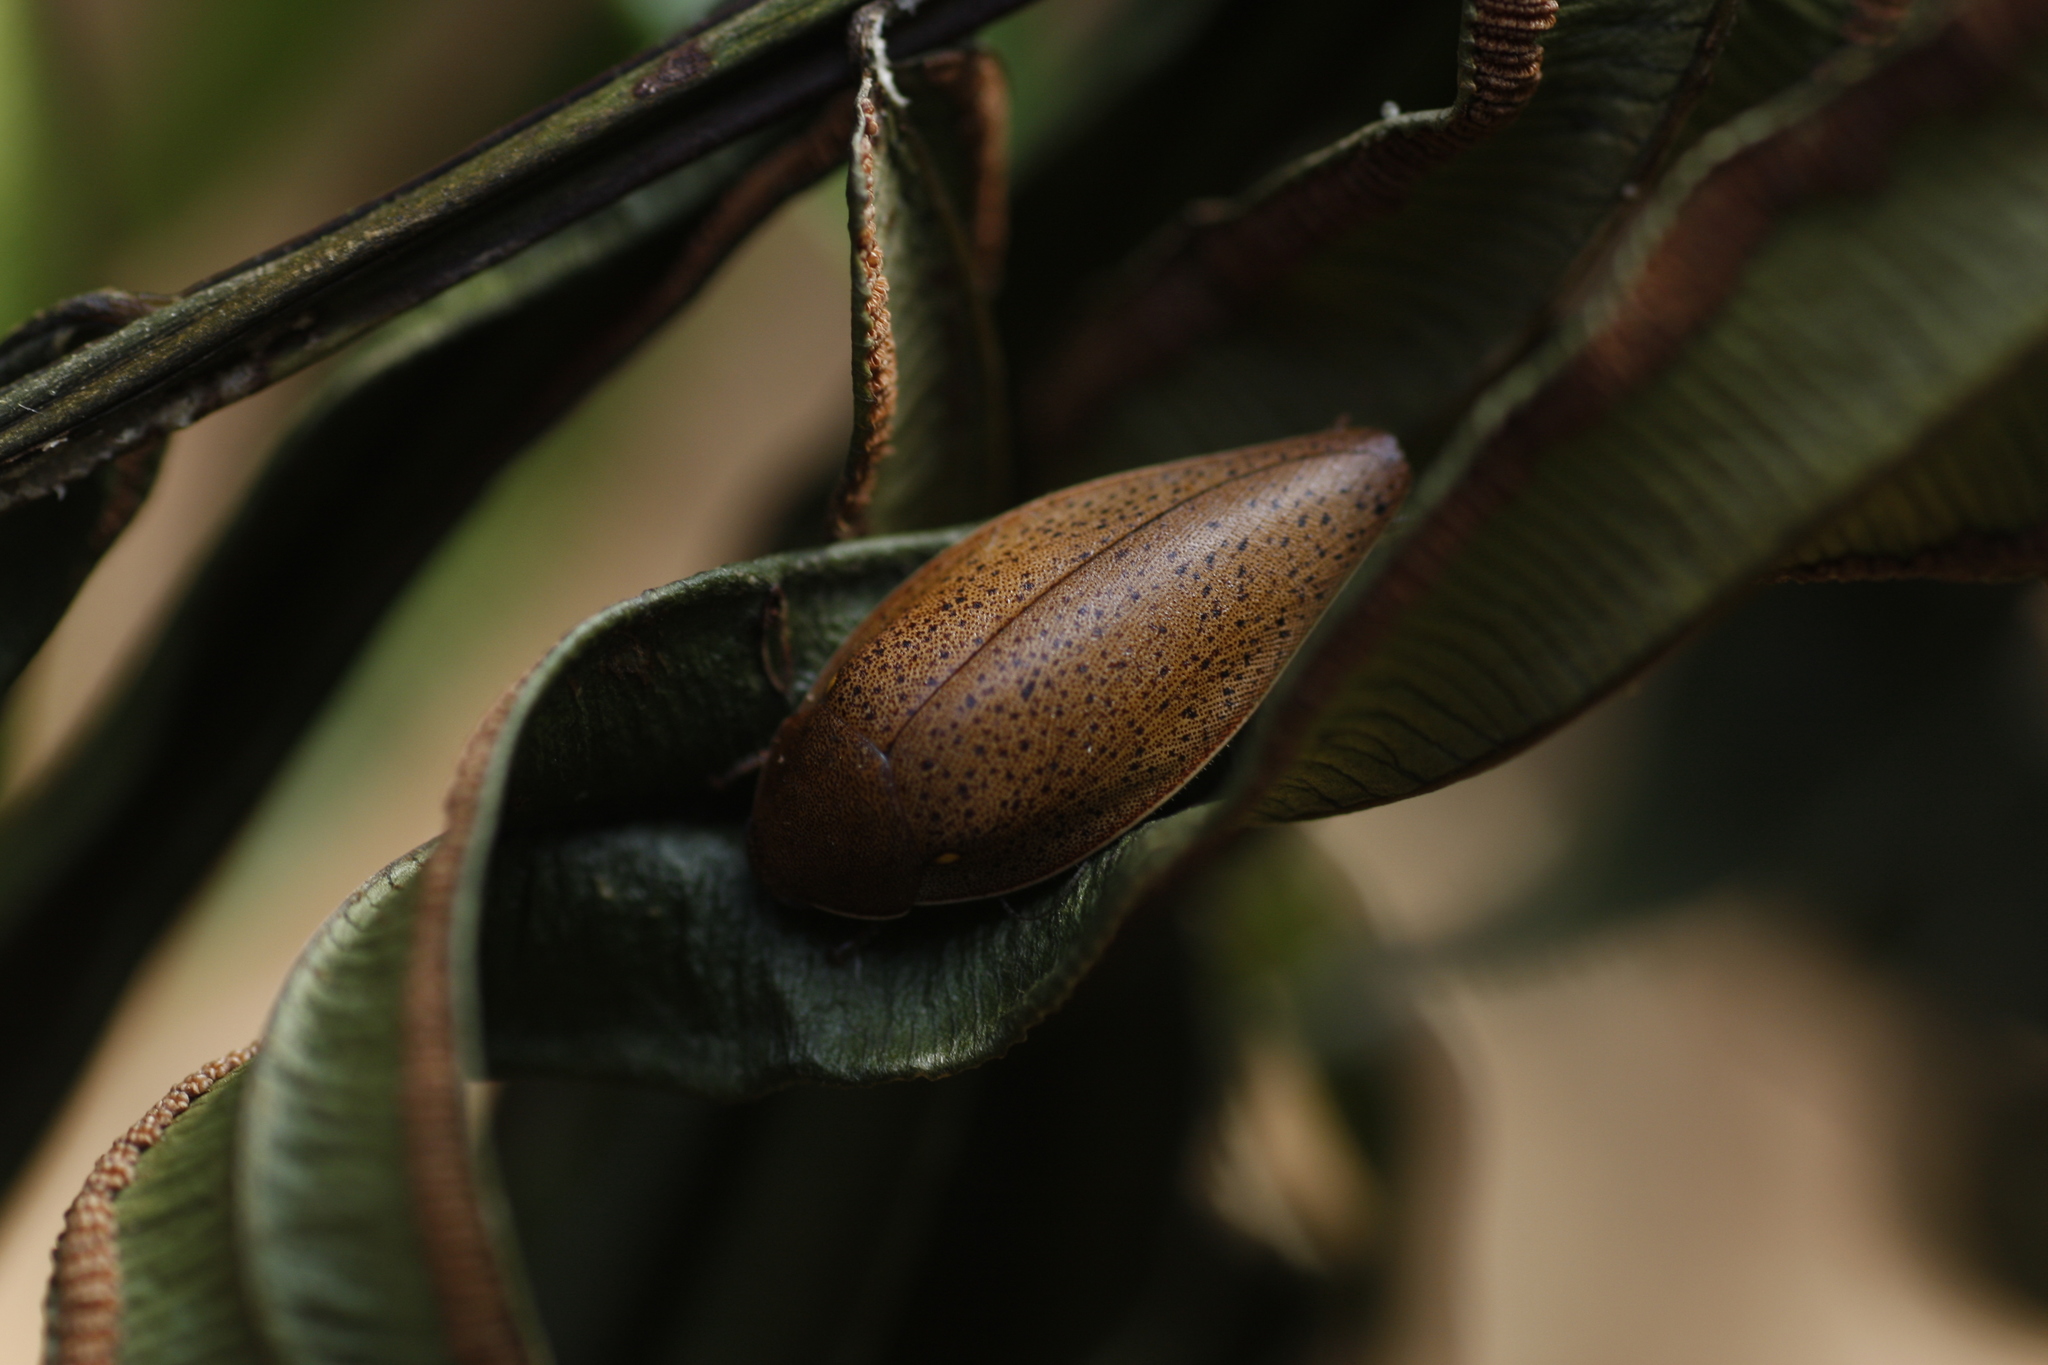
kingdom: Animalia
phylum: Arthropoda
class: Insecta
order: Blattodea
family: Blaberidae
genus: Thorax
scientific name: Thorax porcellana
